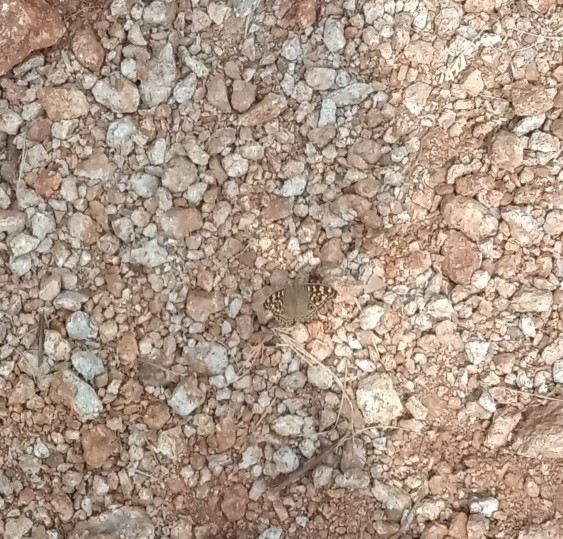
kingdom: Animalia
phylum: Arthropoda
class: Insecta
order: Lepidoptera
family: Nymphalidae
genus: Junonia
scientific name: Junonia lemonias
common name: Lemon pansy
